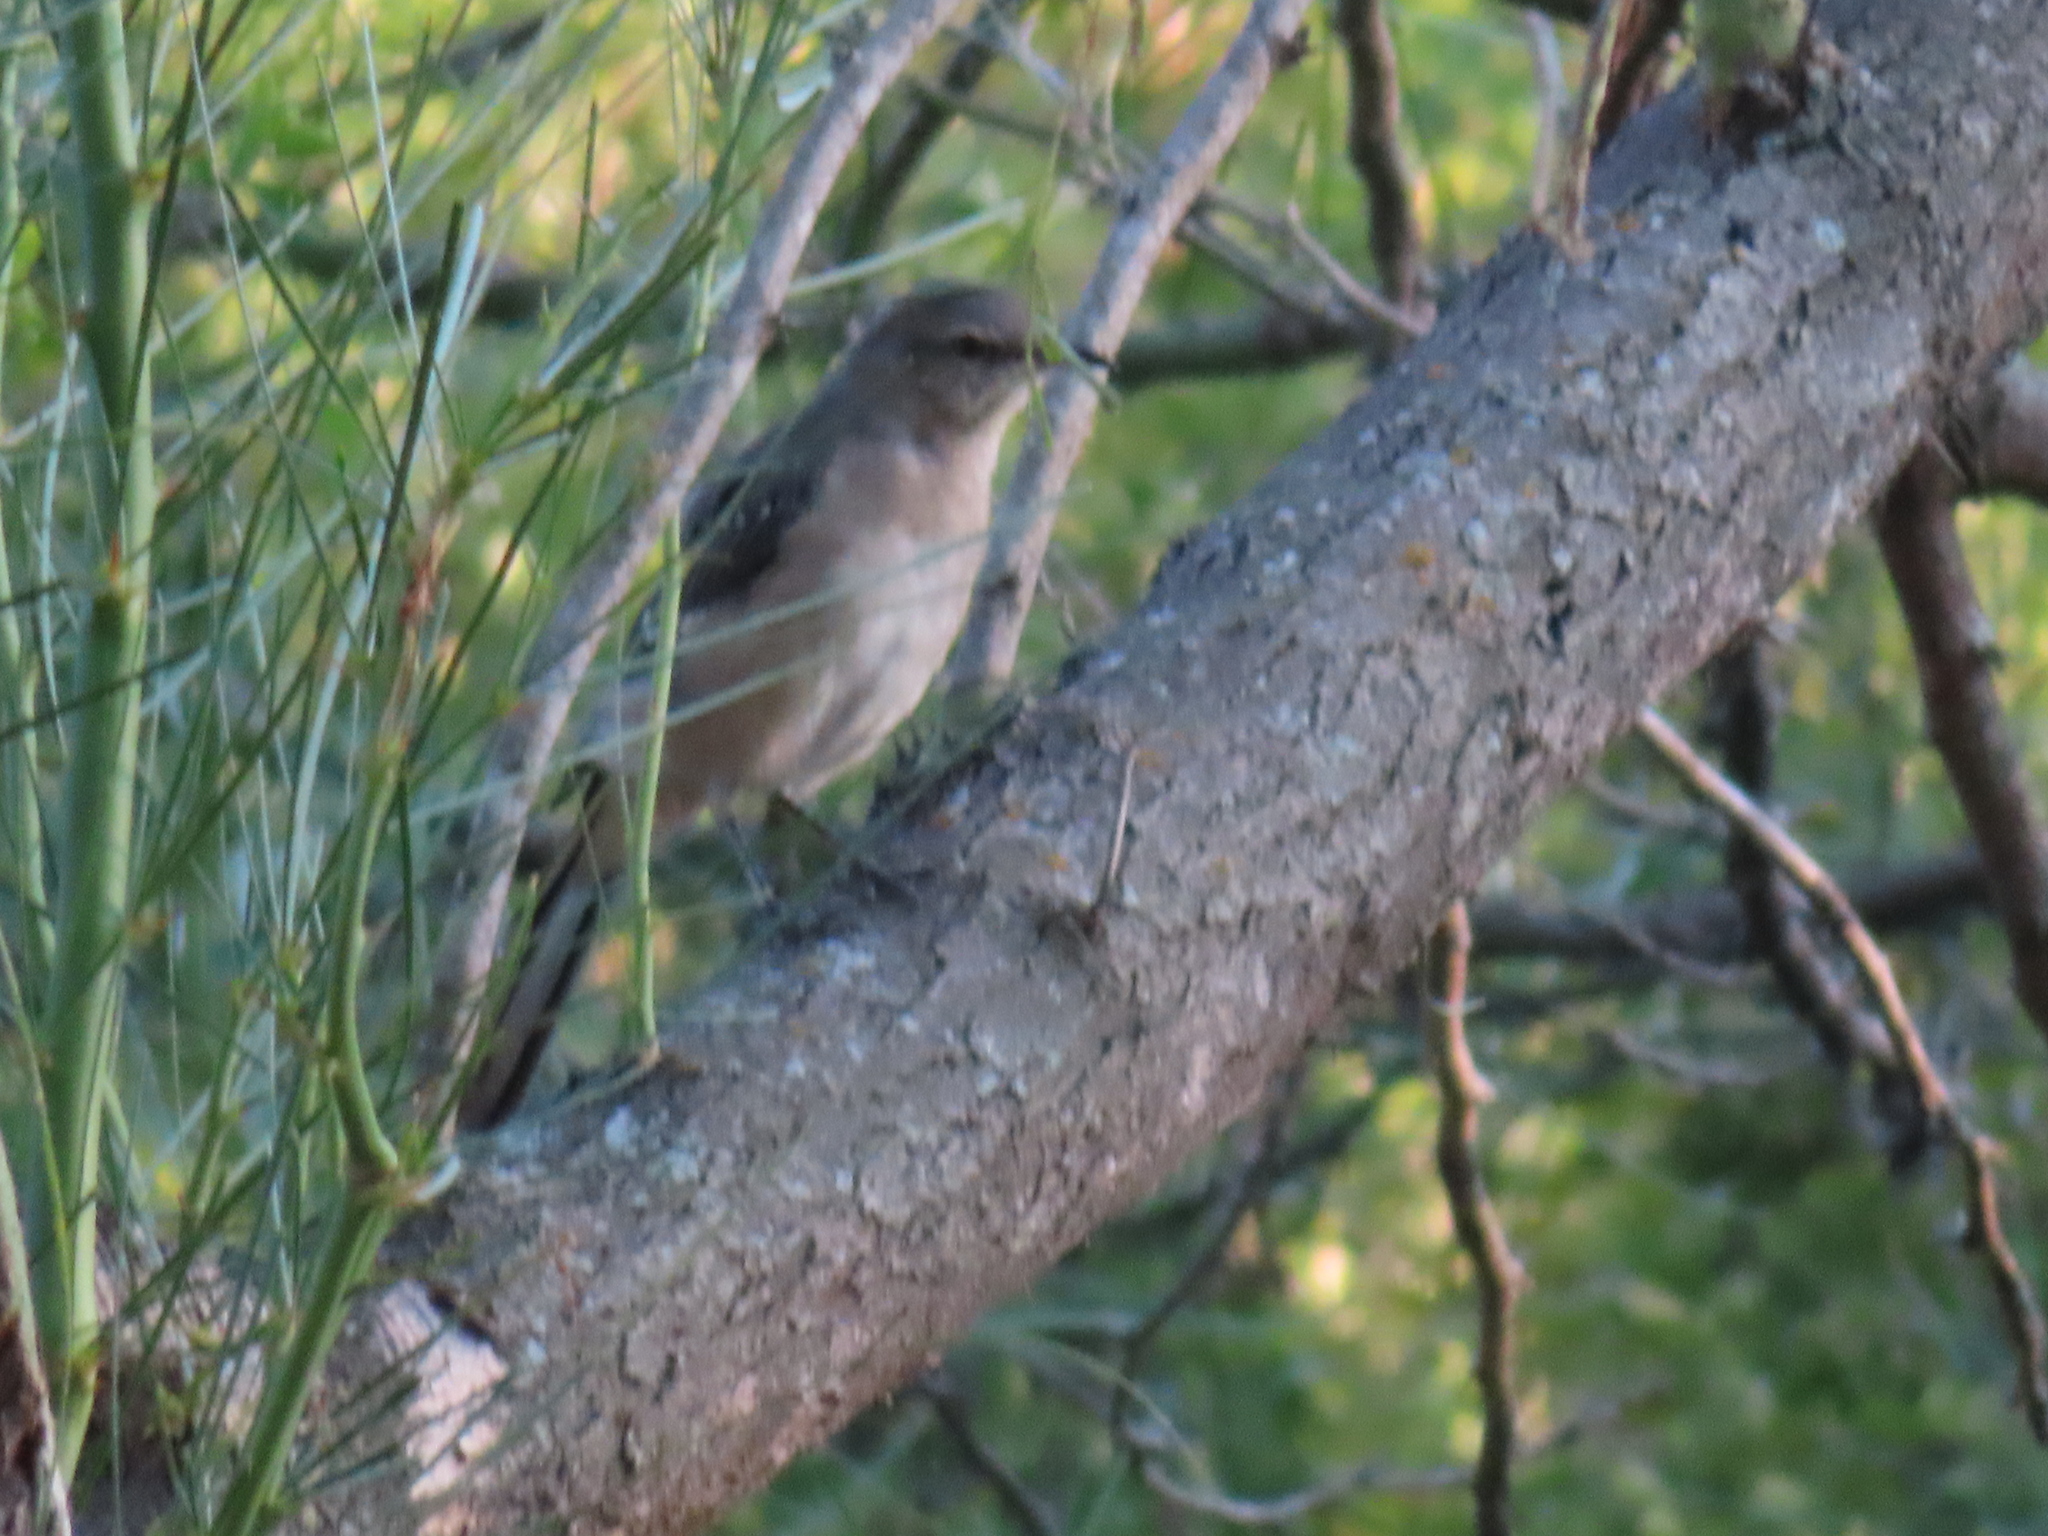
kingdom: Animalia
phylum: Chordata
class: Aves
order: Passeriformes
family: Mimidae
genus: Mimus
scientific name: Mimus polyglottos
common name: Northern mockingbird
